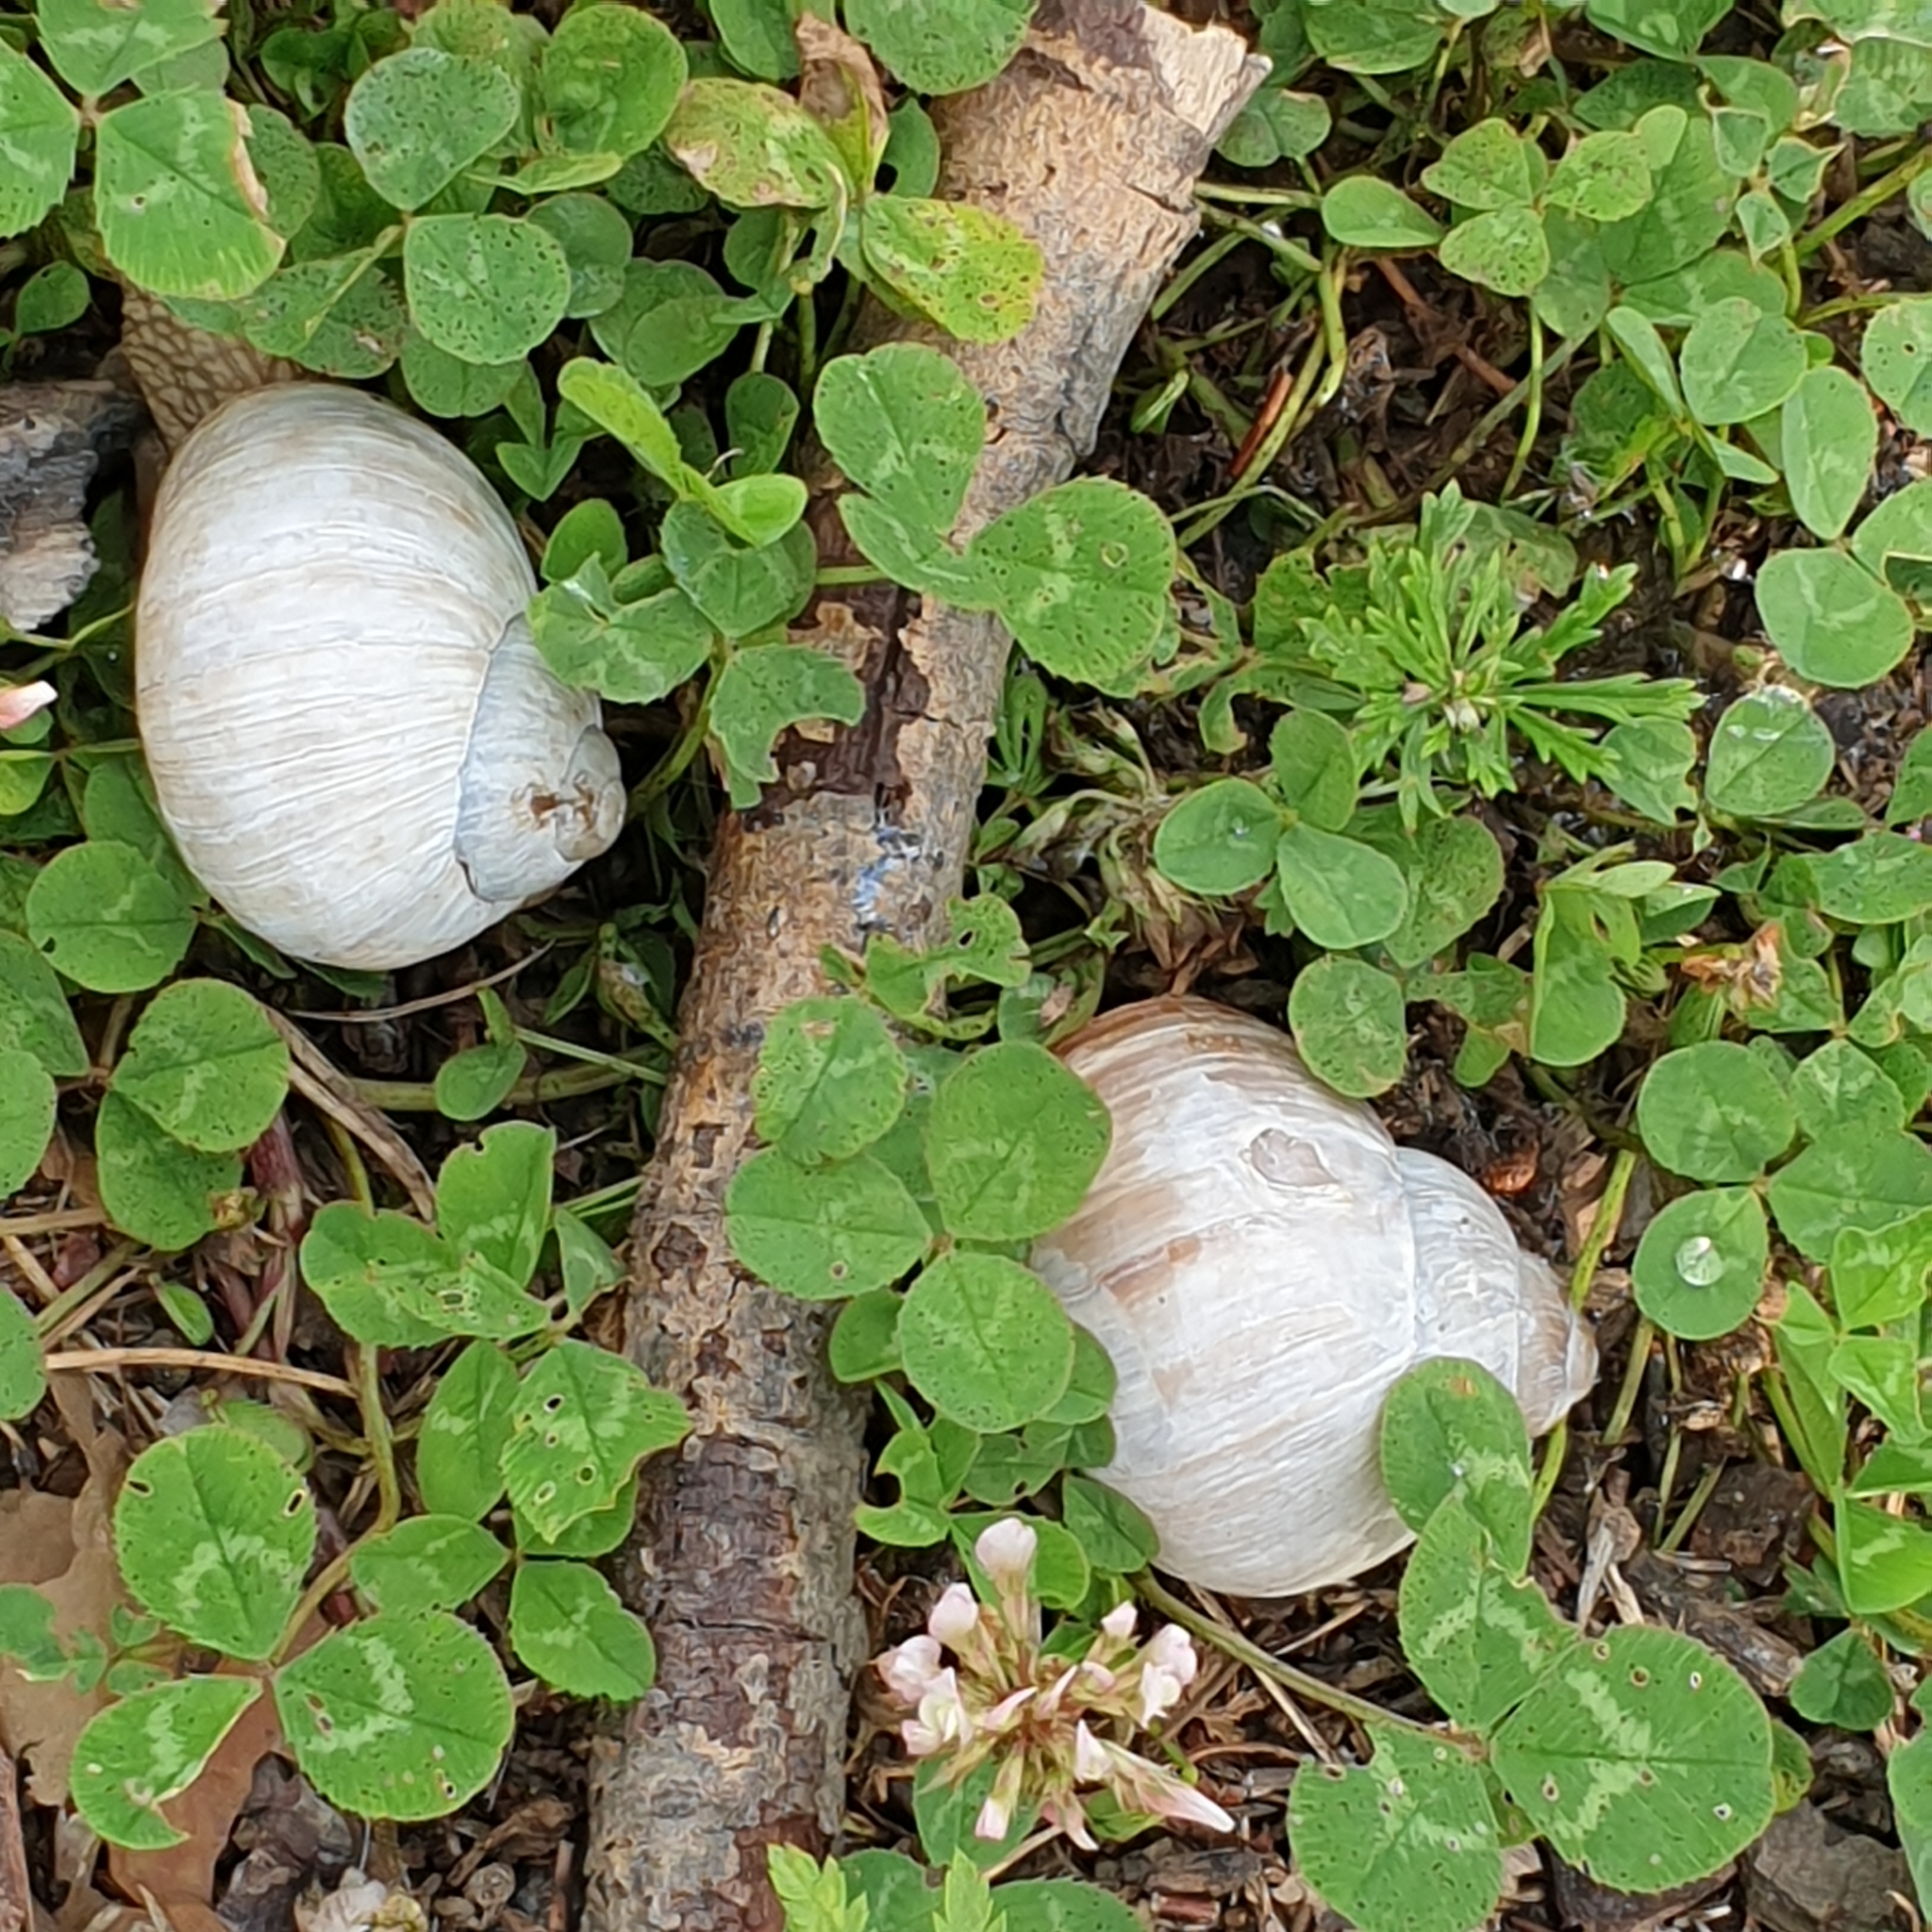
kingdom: Animalia
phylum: Mollusca
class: Gastropoda
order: Stylommatophora
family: Helicidae
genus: Helix
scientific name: Helix pomatia
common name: Roman snail
